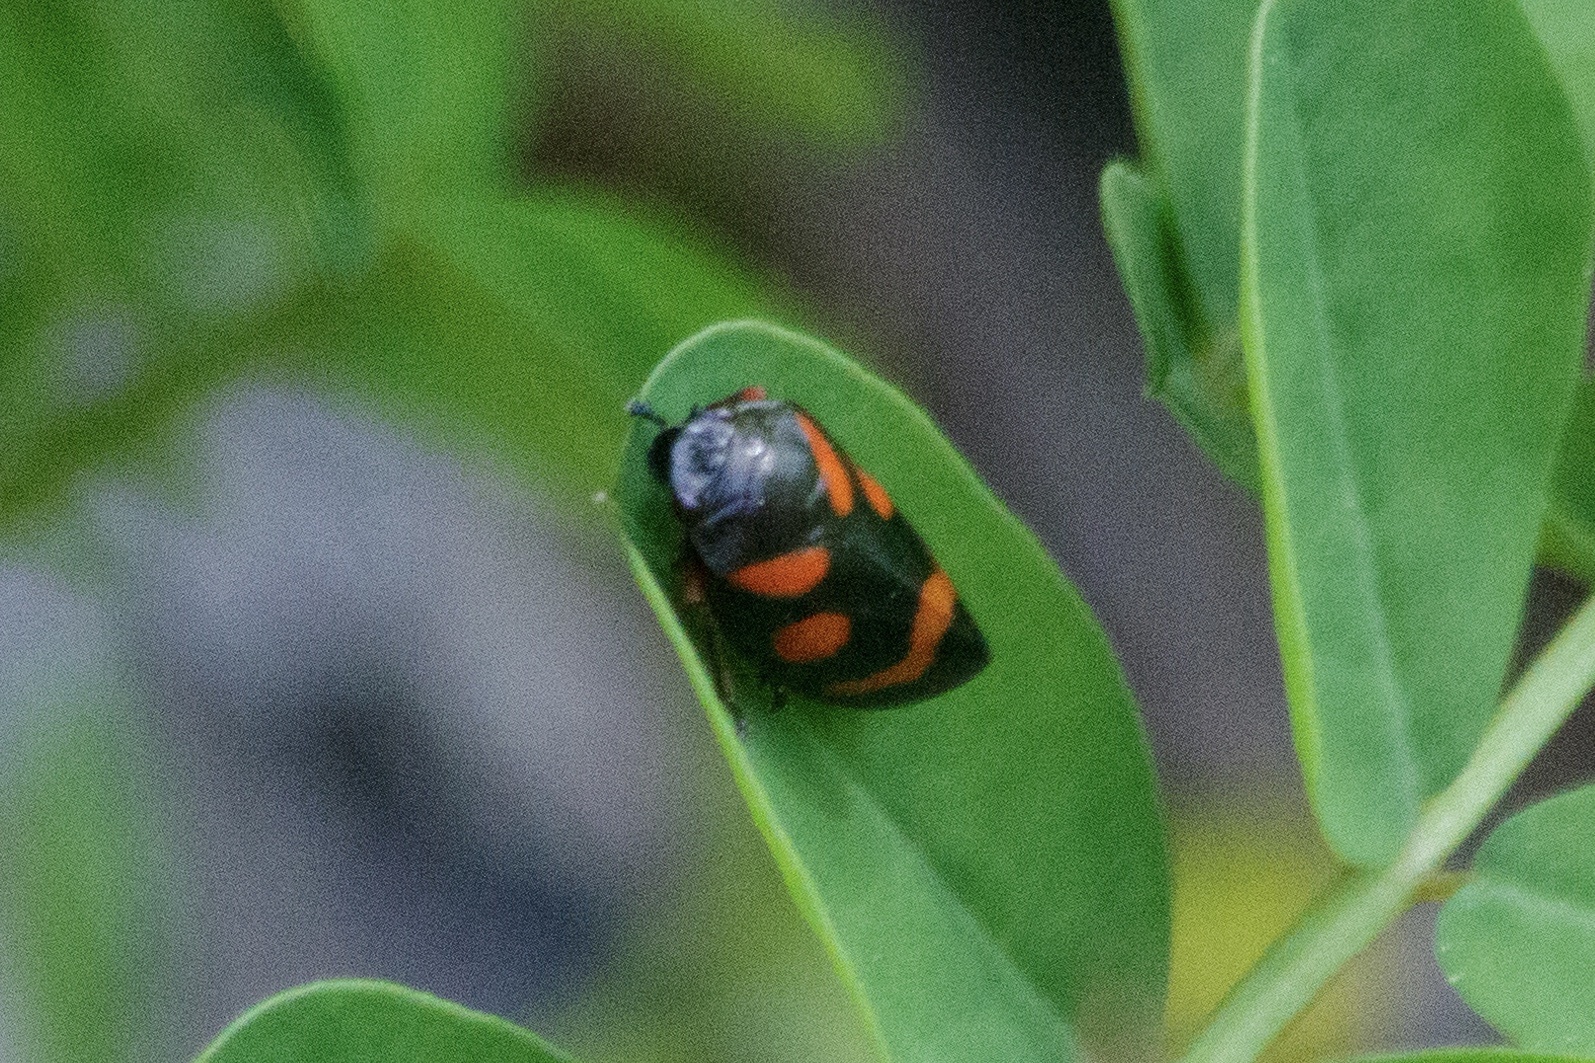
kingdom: Animalia
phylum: Arthropoda
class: Insecta
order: Hemiptera
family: Cercopidae
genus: Cercopis
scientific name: Cercopis intermedia
